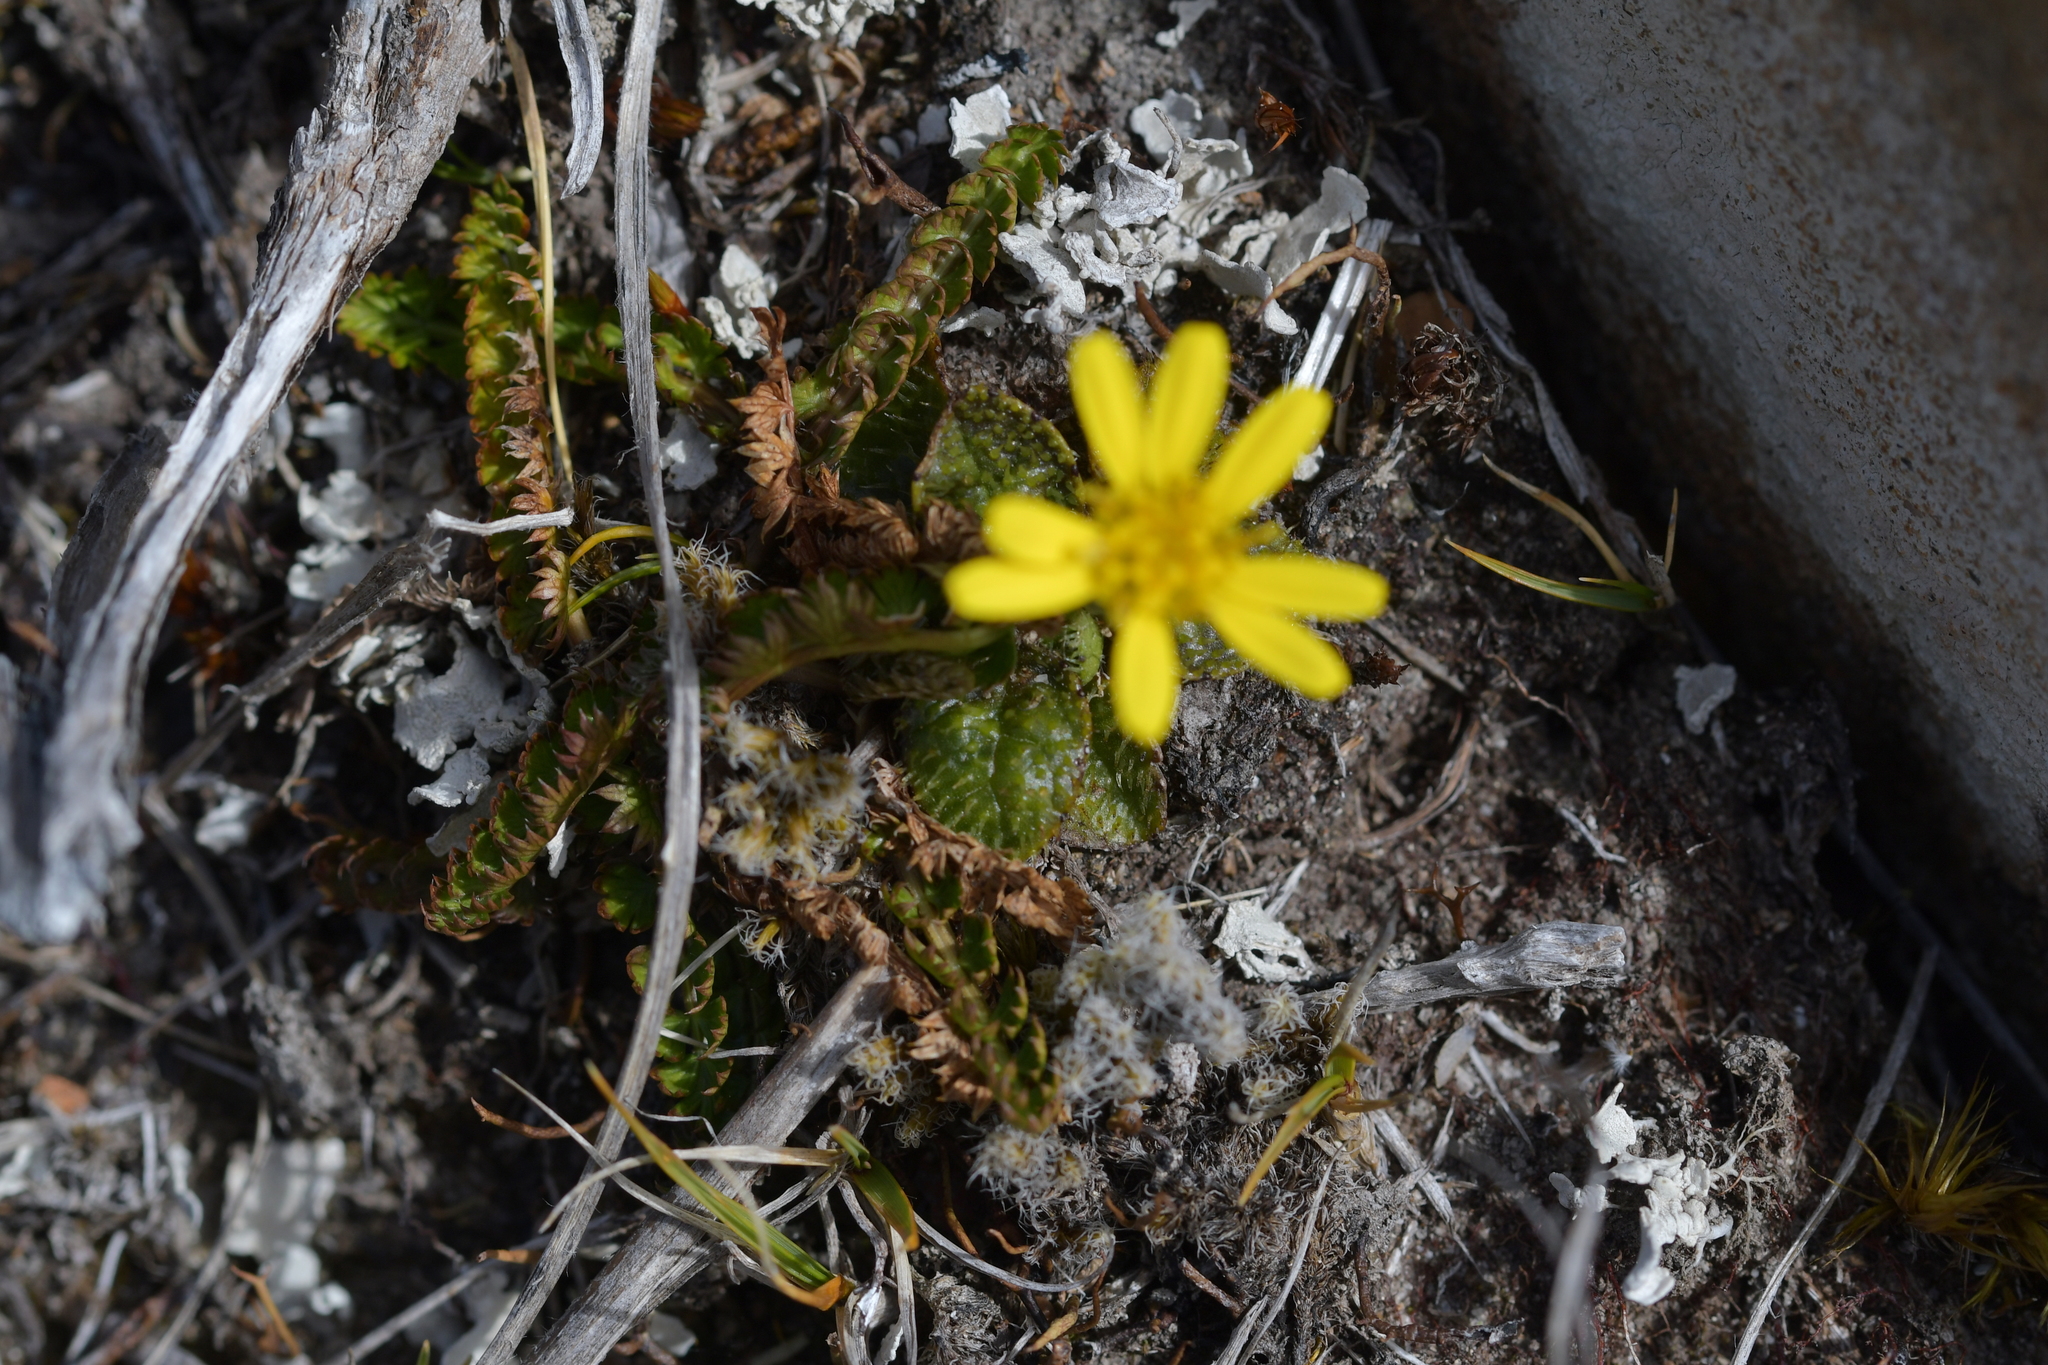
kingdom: Plantae
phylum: Tracheophyta
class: Magnoliopsida
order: Asterales
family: Asteraceae
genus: Brachyglottis
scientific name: Brachyglottis bellidioides
